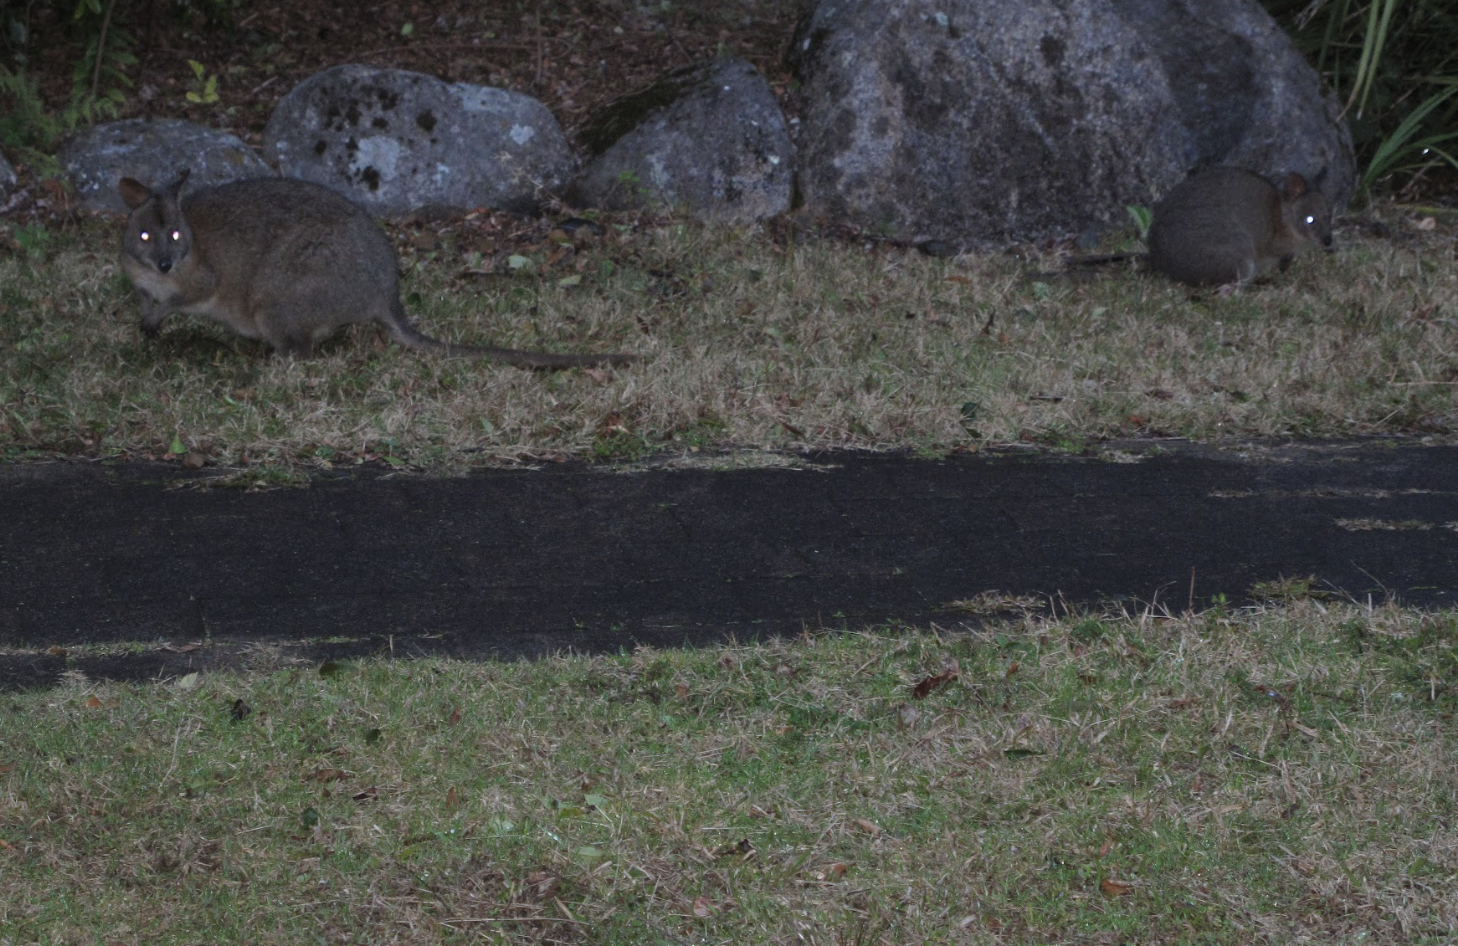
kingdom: Animalia
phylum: Chordata
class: Mammalia
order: Diprotodontia
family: Macropodidae
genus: Thylogale
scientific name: Thylogale thetis
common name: Red-necked pademelon
